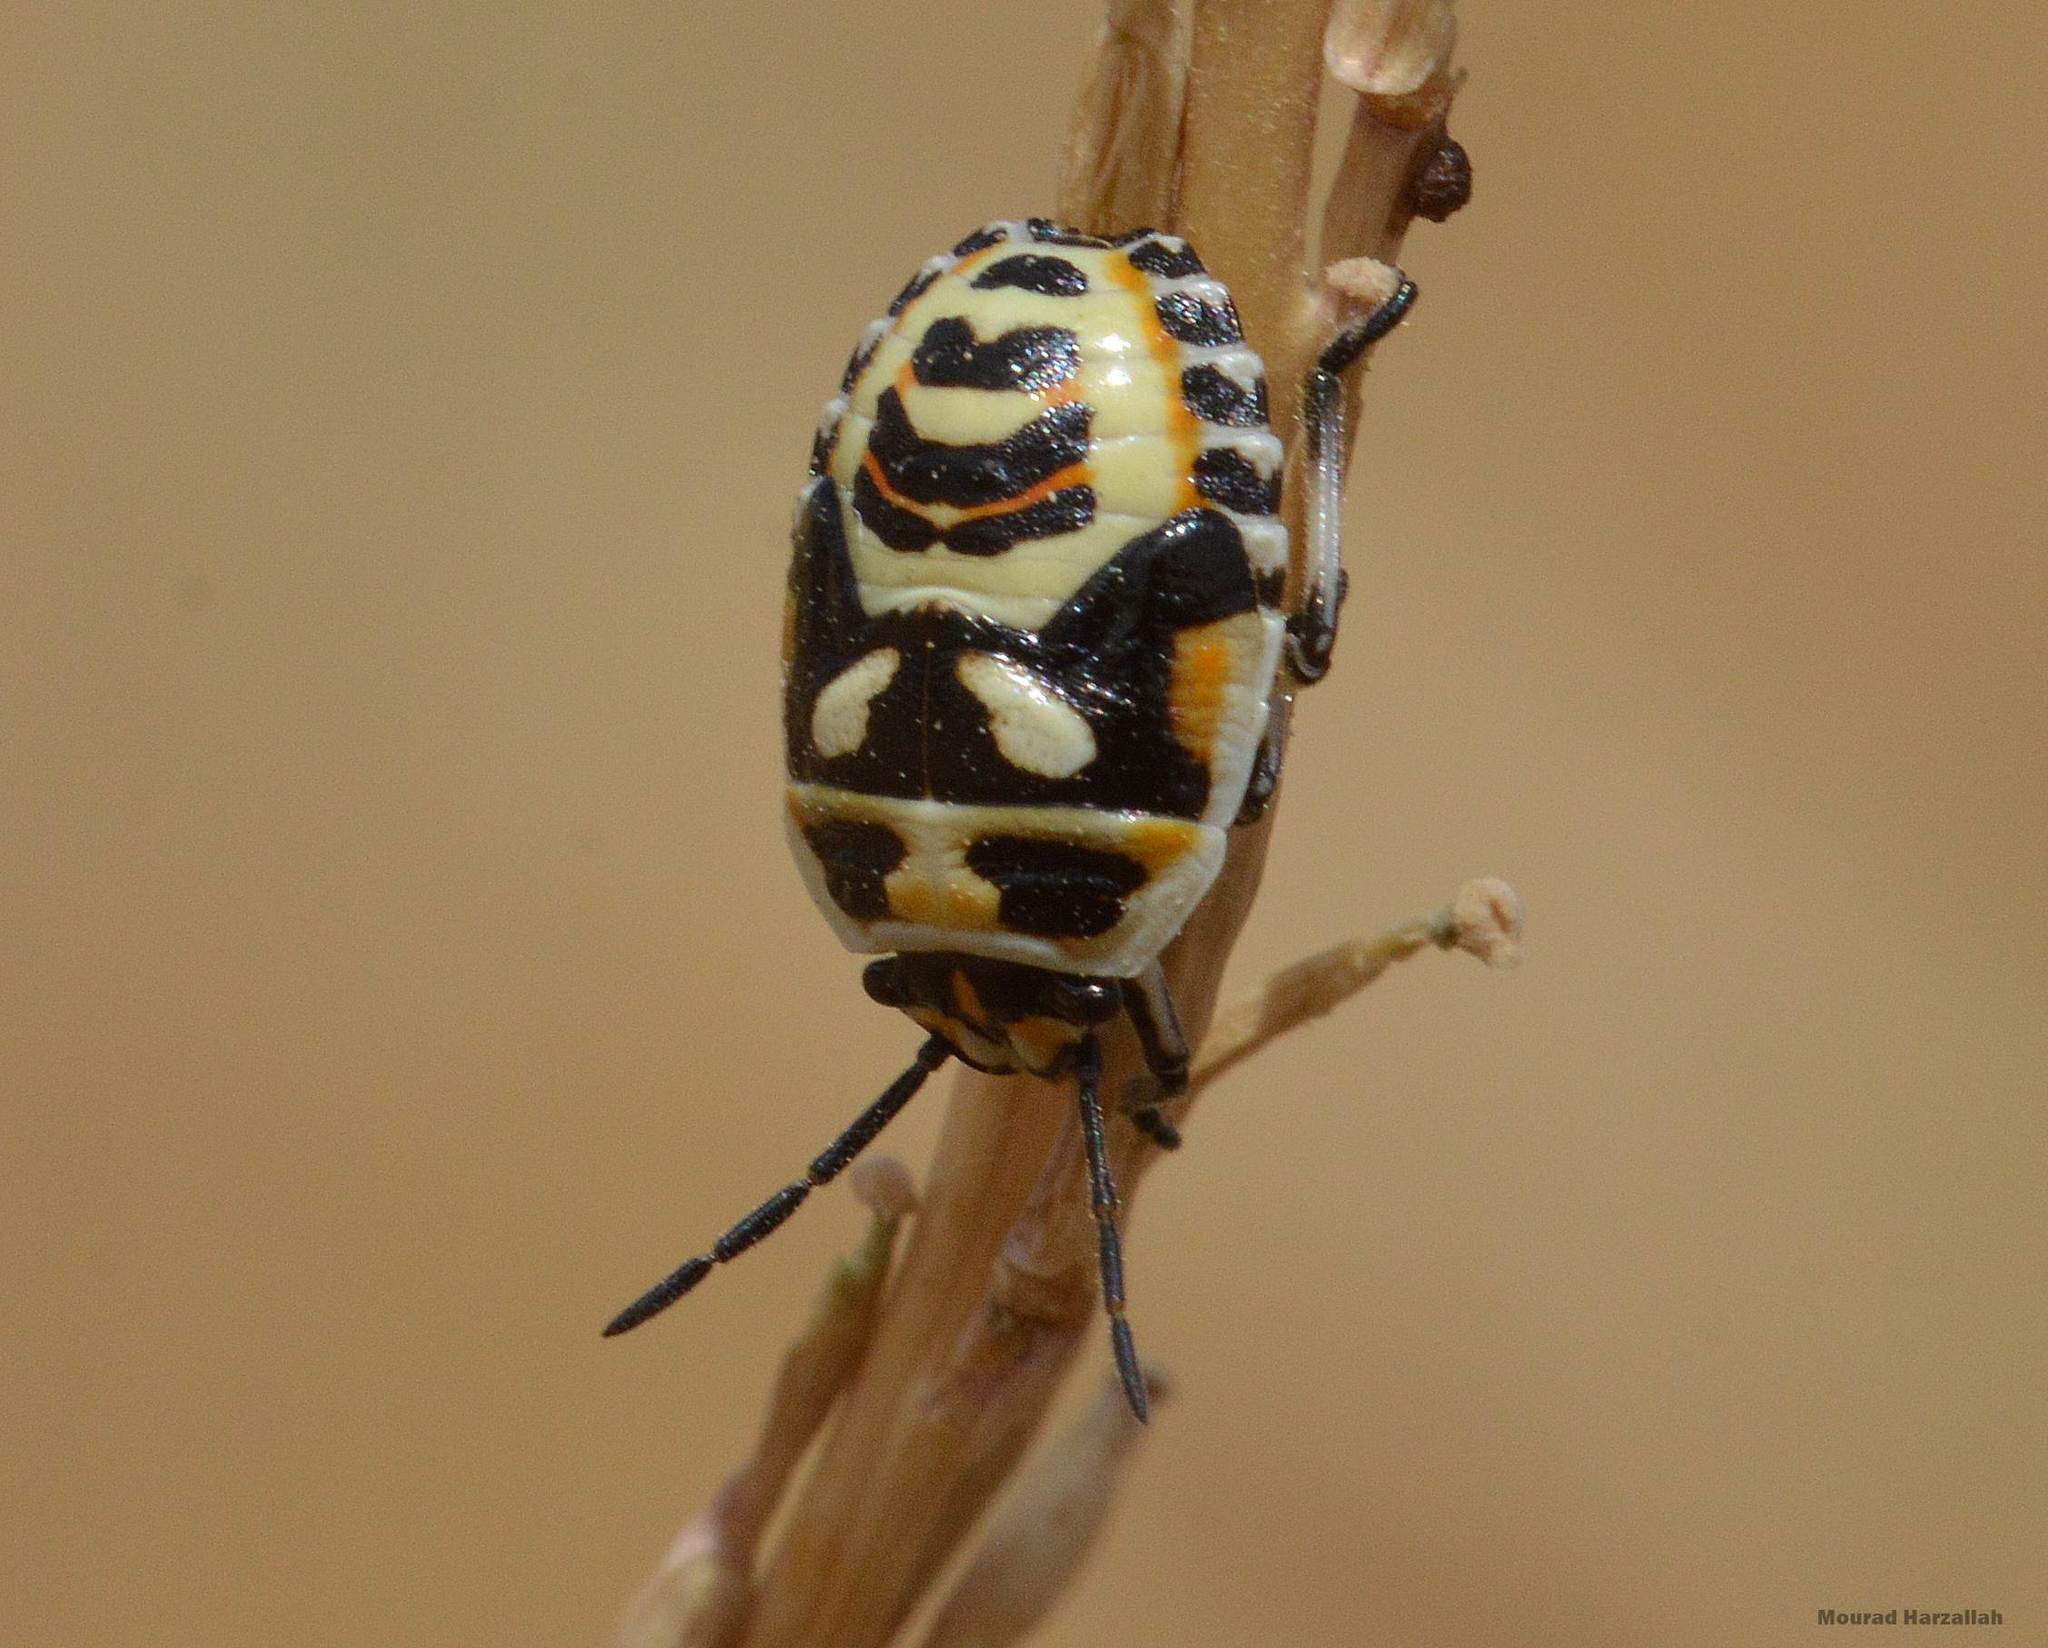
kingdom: Animalia
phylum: Arthropoda
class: Insecta
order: Hemiptera
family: Pentatomidae
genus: Eurydema
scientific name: Eurydema ornata
